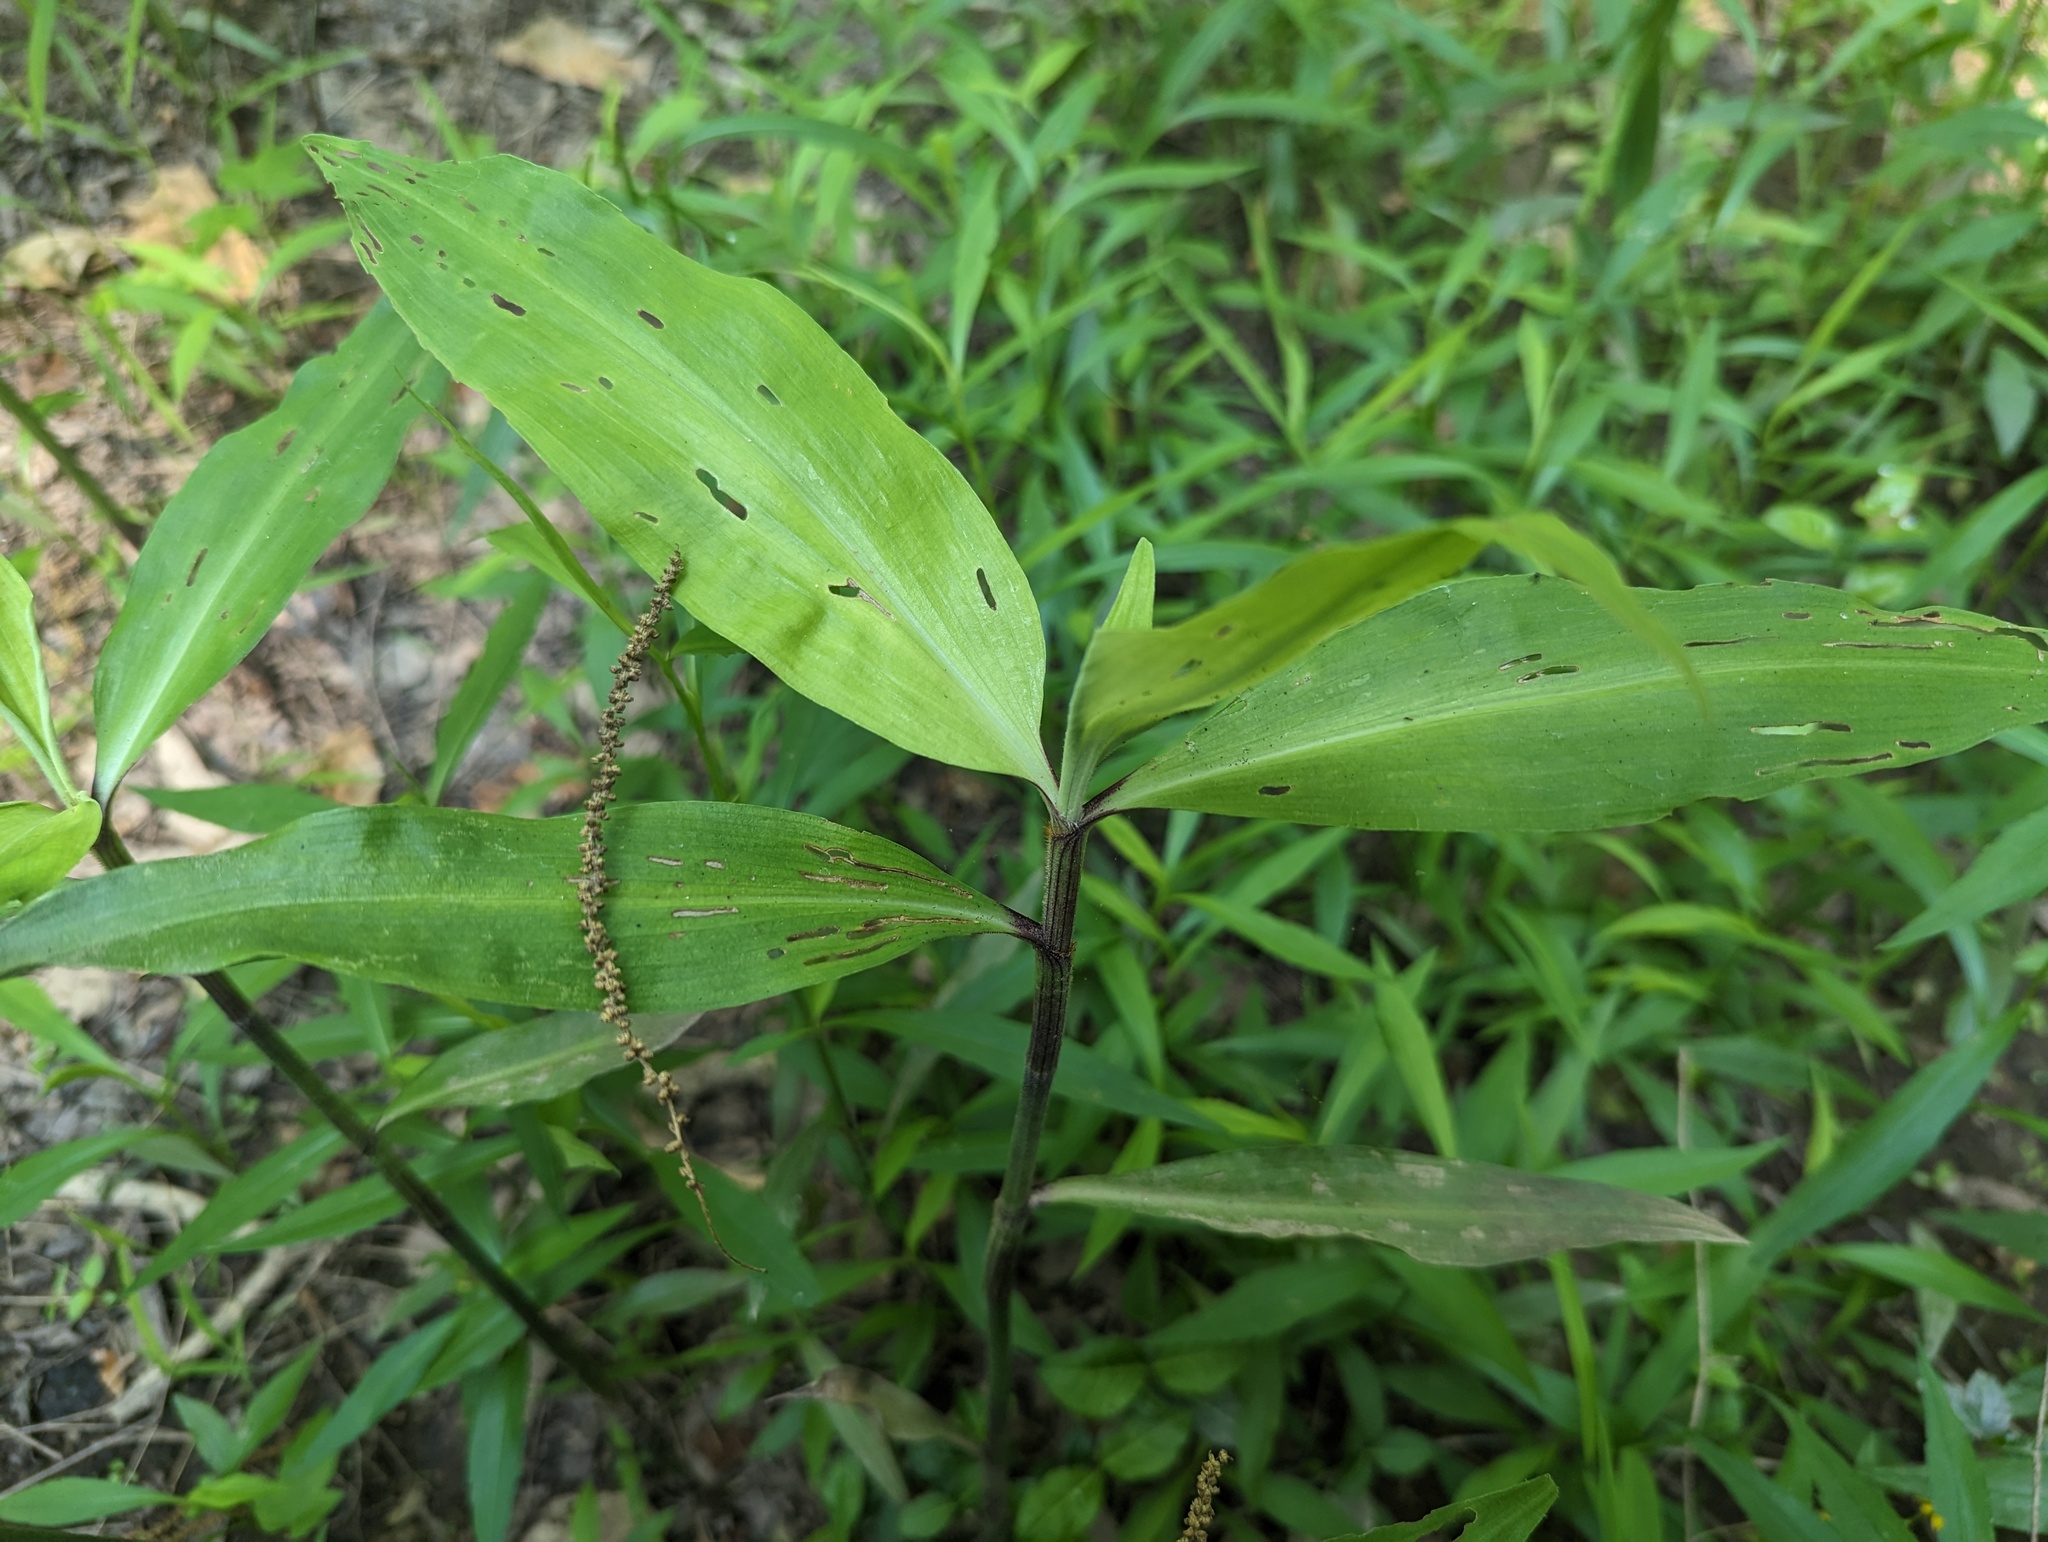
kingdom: Plantae
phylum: Tracheophyta
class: Liliopsida
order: Commelinales
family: Commelinaceae
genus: Commelina
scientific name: Commelina virginica
